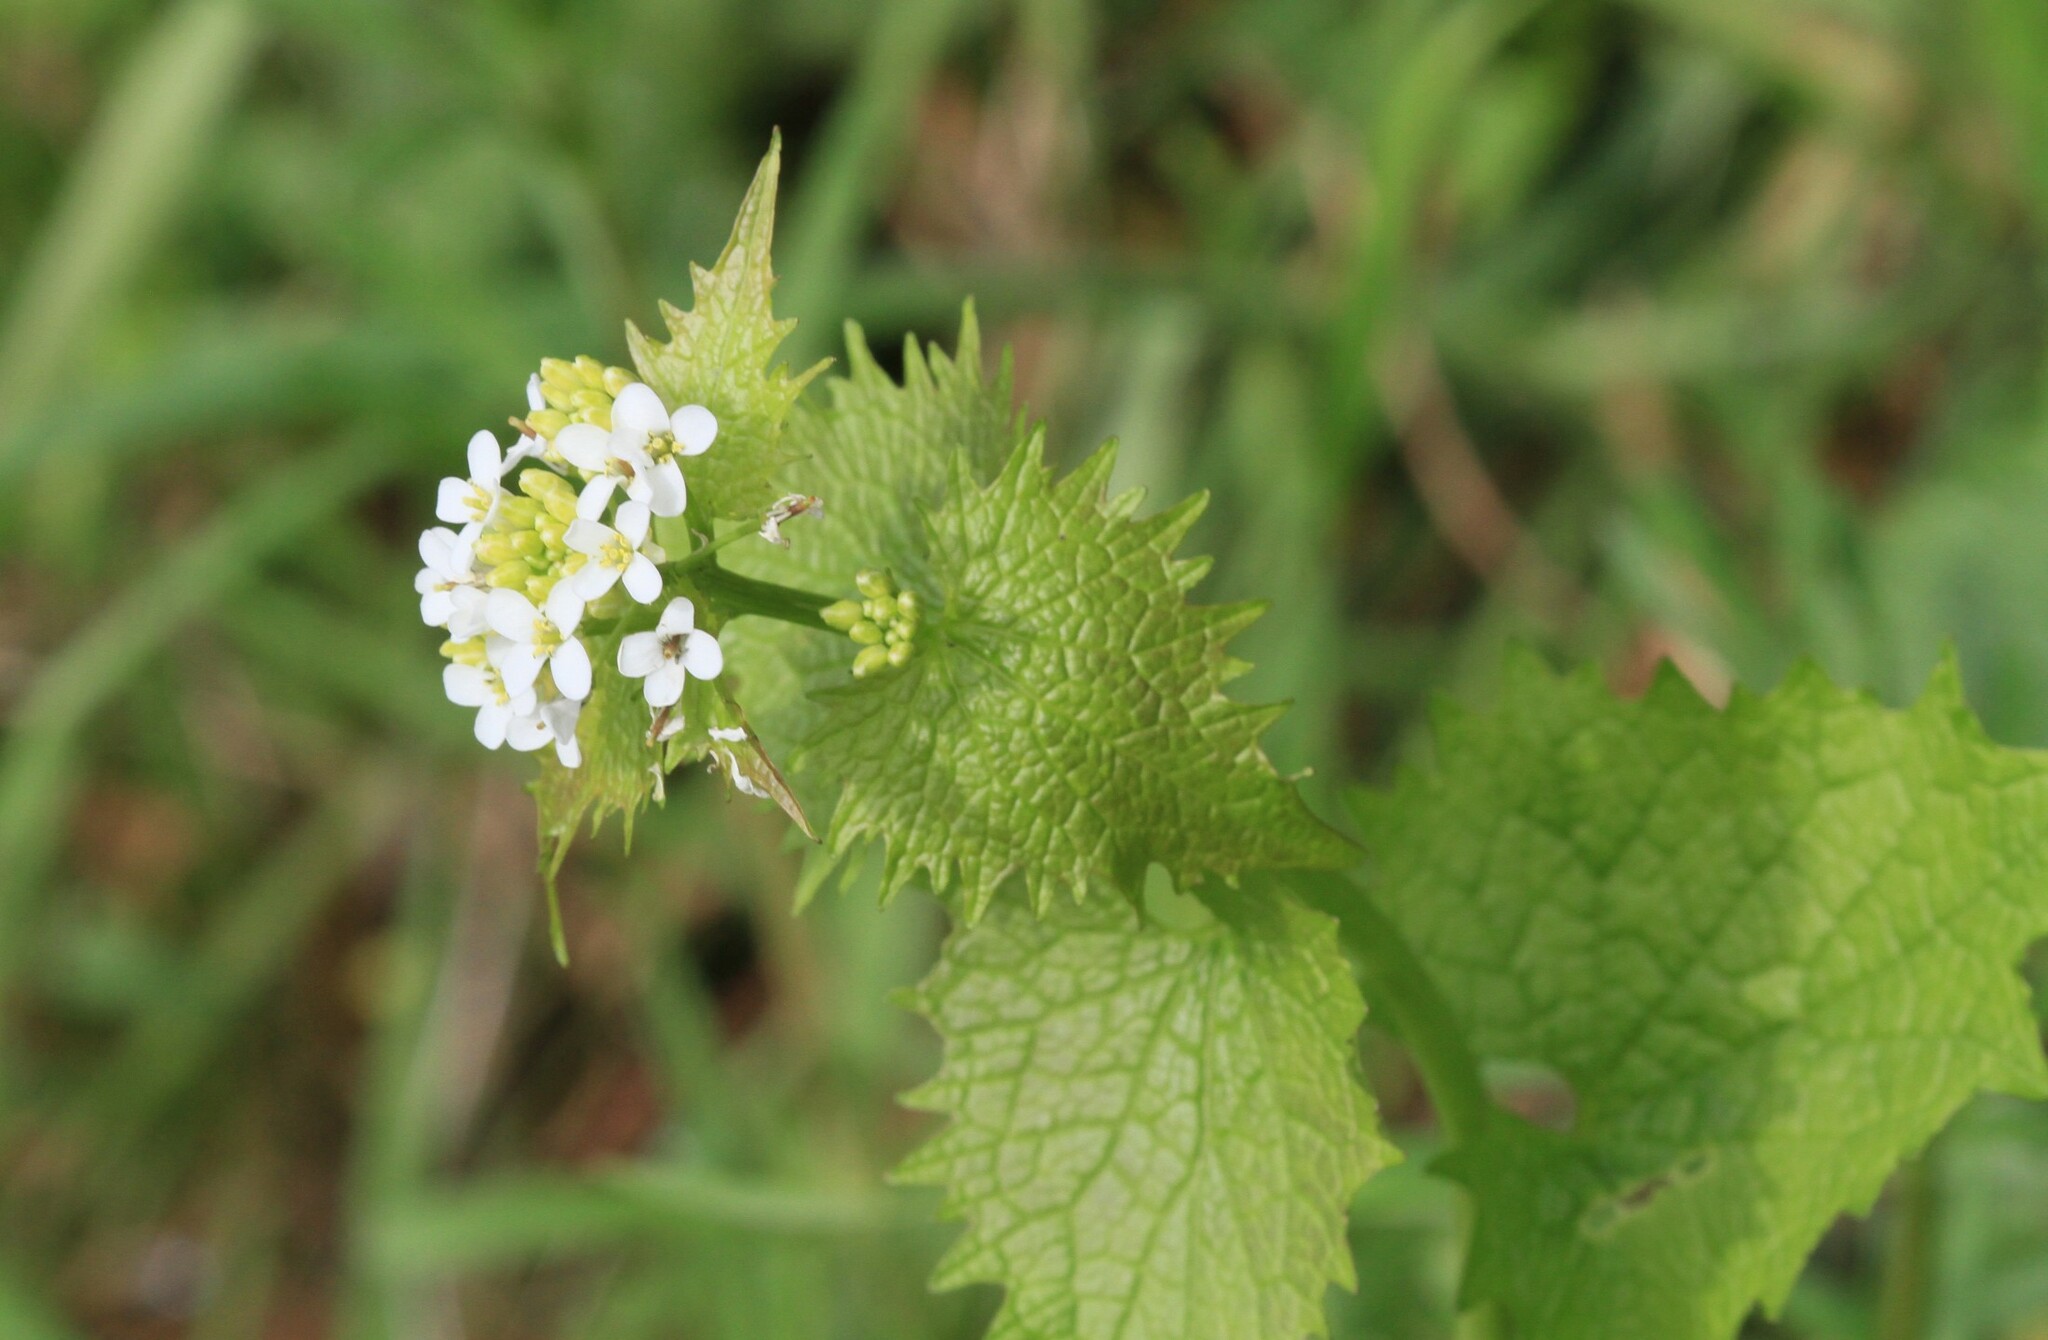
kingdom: Plantae
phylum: Tracheophyta
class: Magnoliopsida
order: Brassicales
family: Brassicaceae
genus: Alliaria
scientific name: Alliaria petiolata
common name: Garlic mustard
